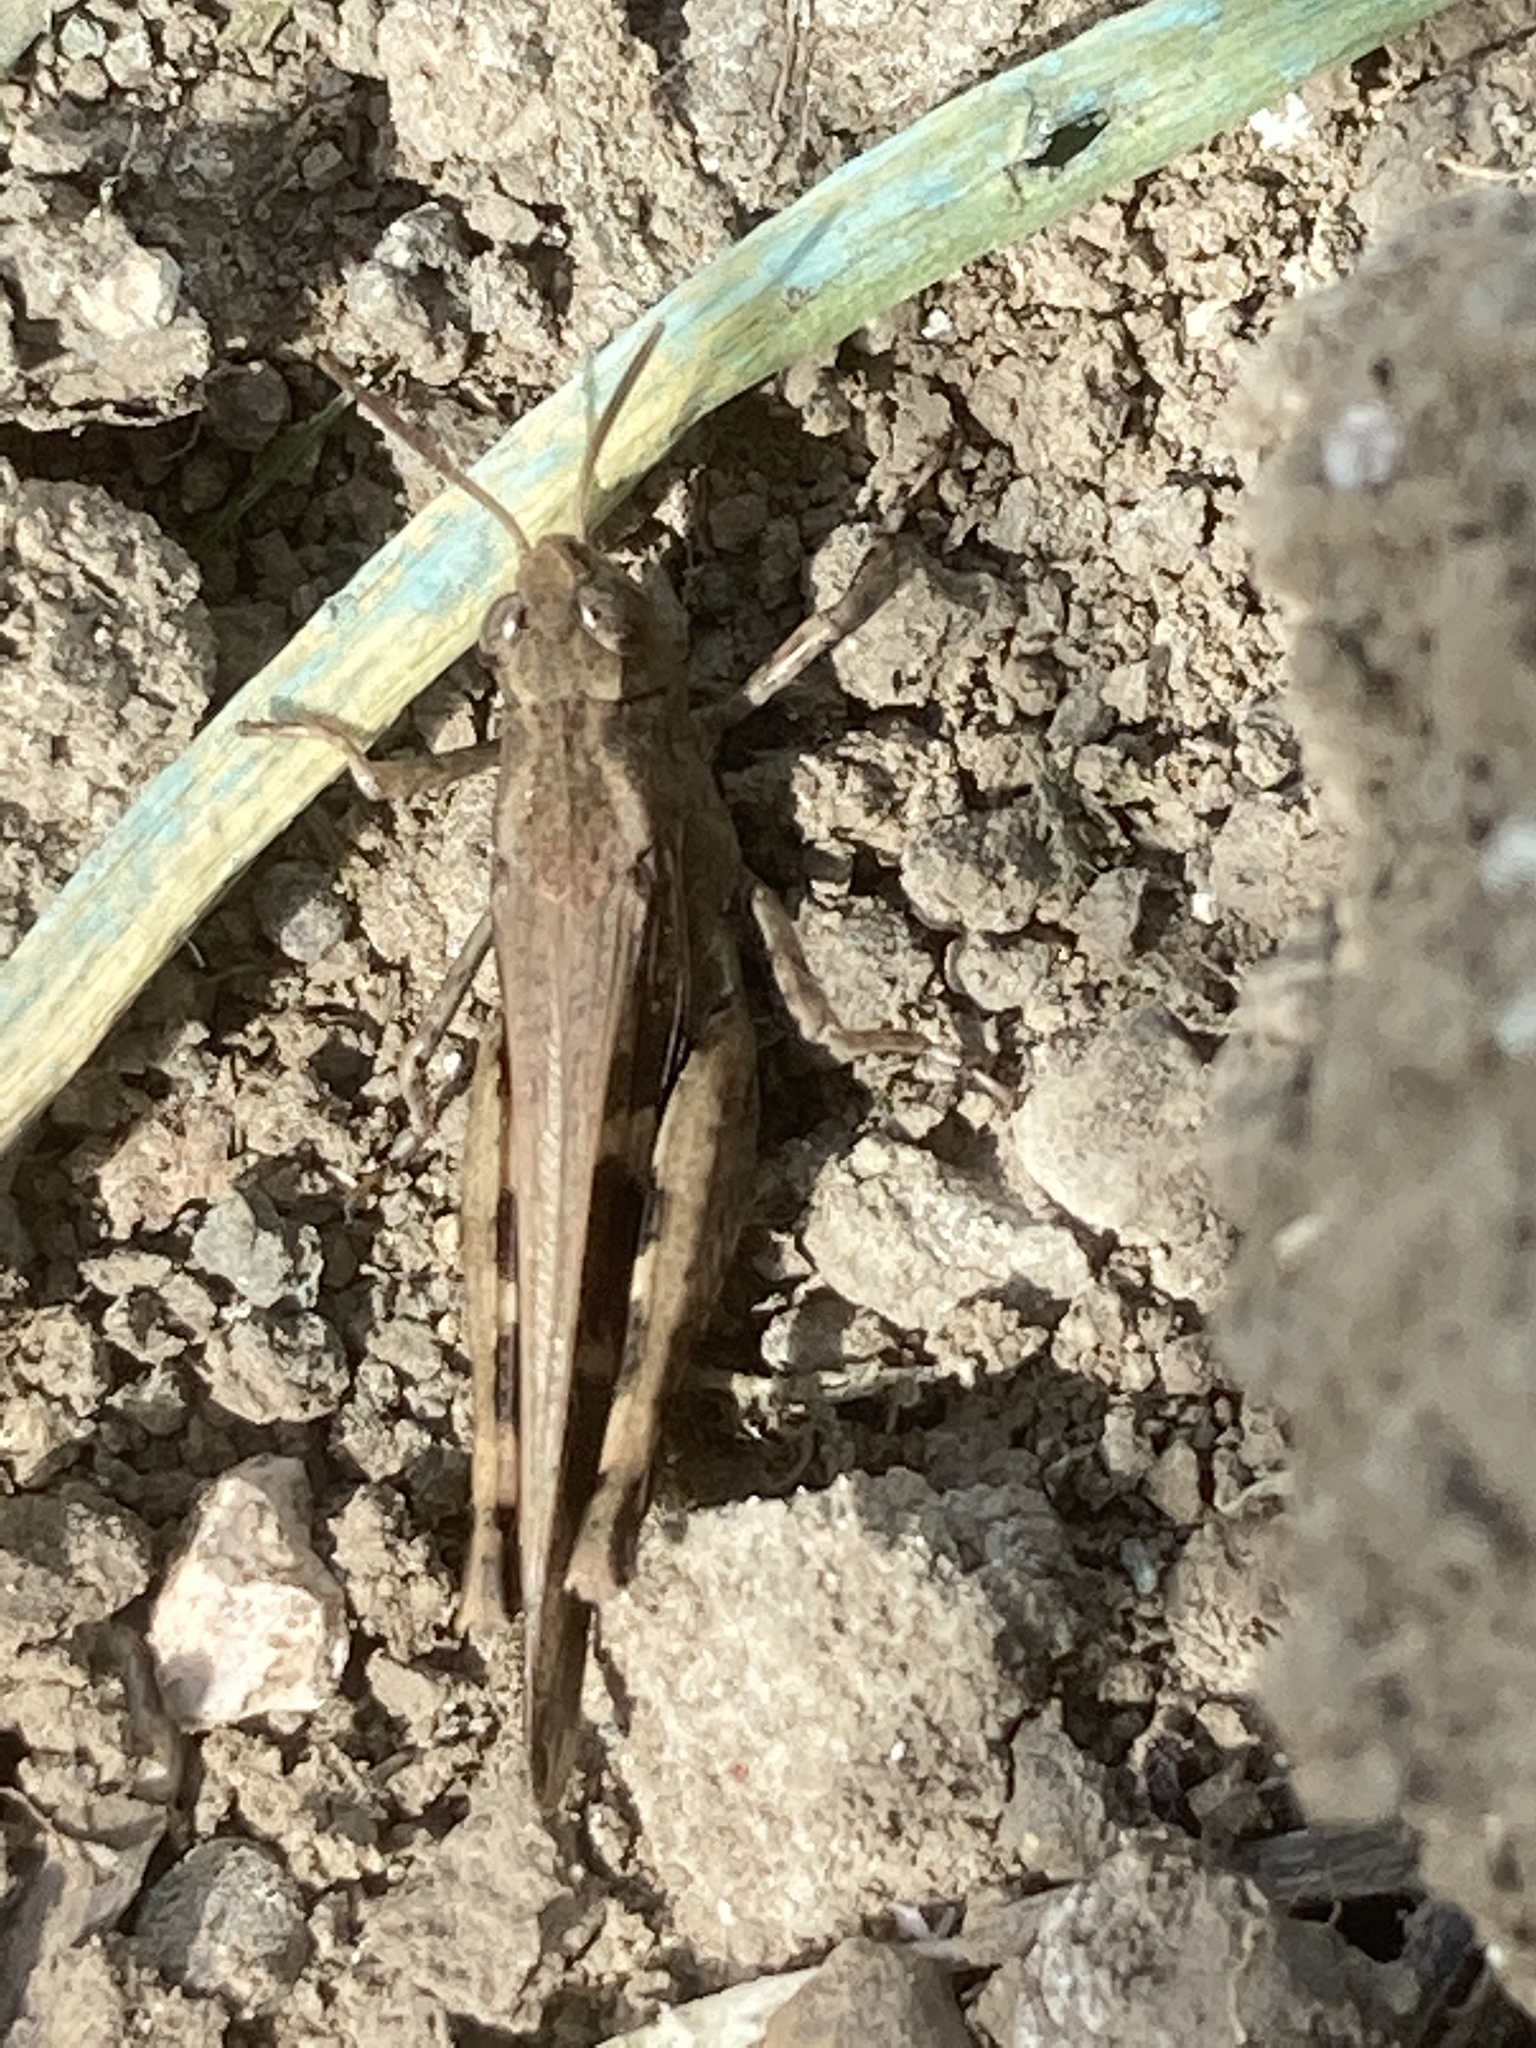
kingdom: Animalia
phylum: Arthropoda
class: Insecta
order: Orthoptera
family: Acrididae
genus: Aiolopus
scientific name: Aiolopus strepens
